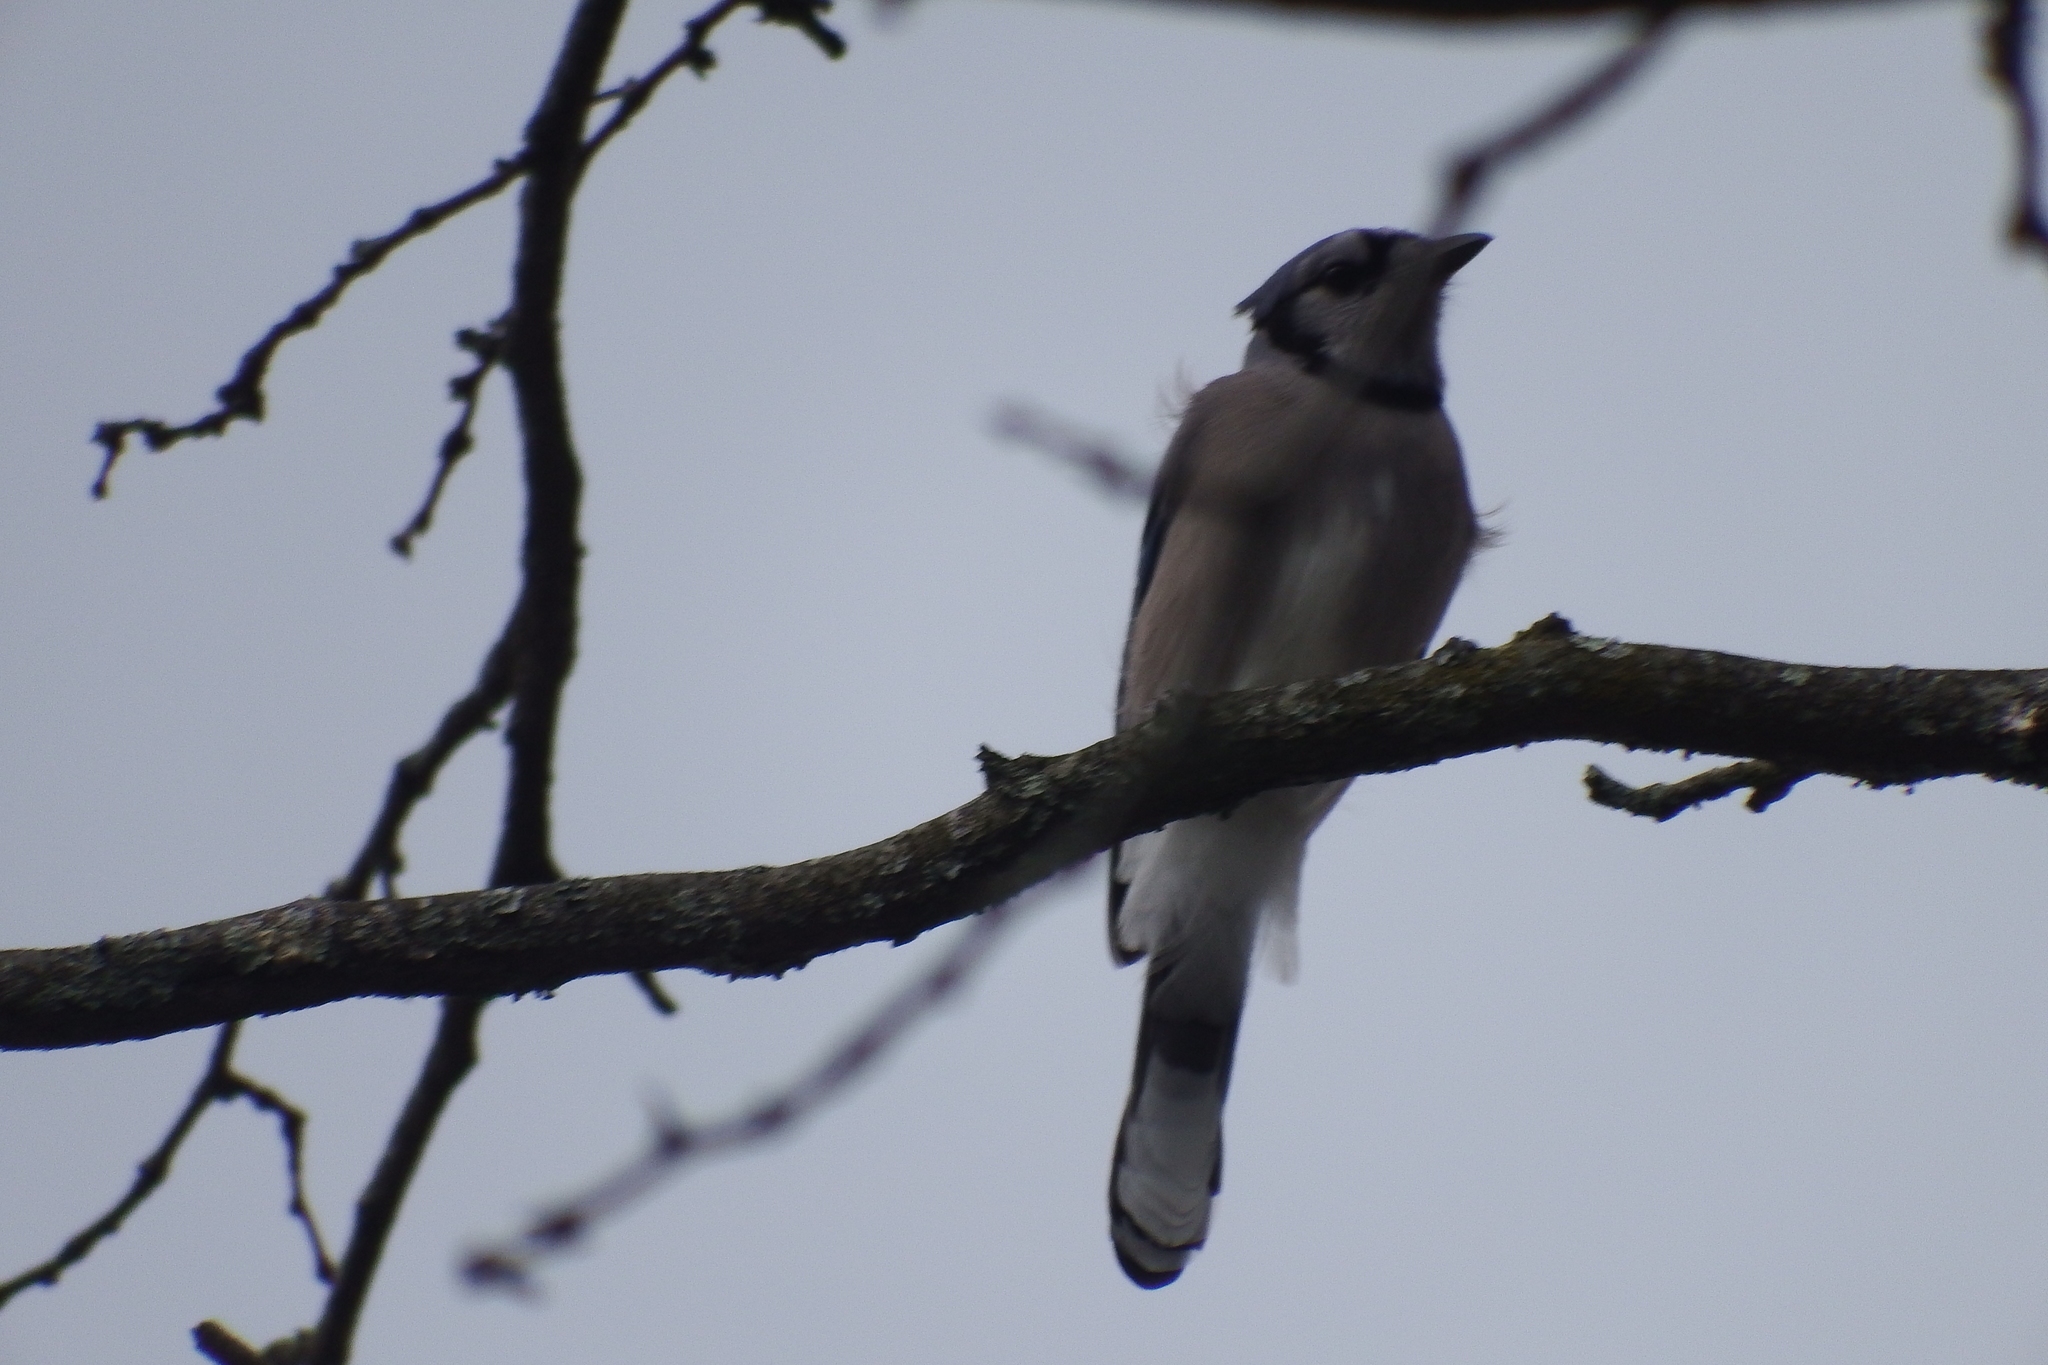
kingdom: Animalia
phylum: Chordata
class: Aves
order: Passeriformes
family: Corvidae
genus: Cyanocitta
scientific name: Cyanocitta cristata
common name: Blue jay
